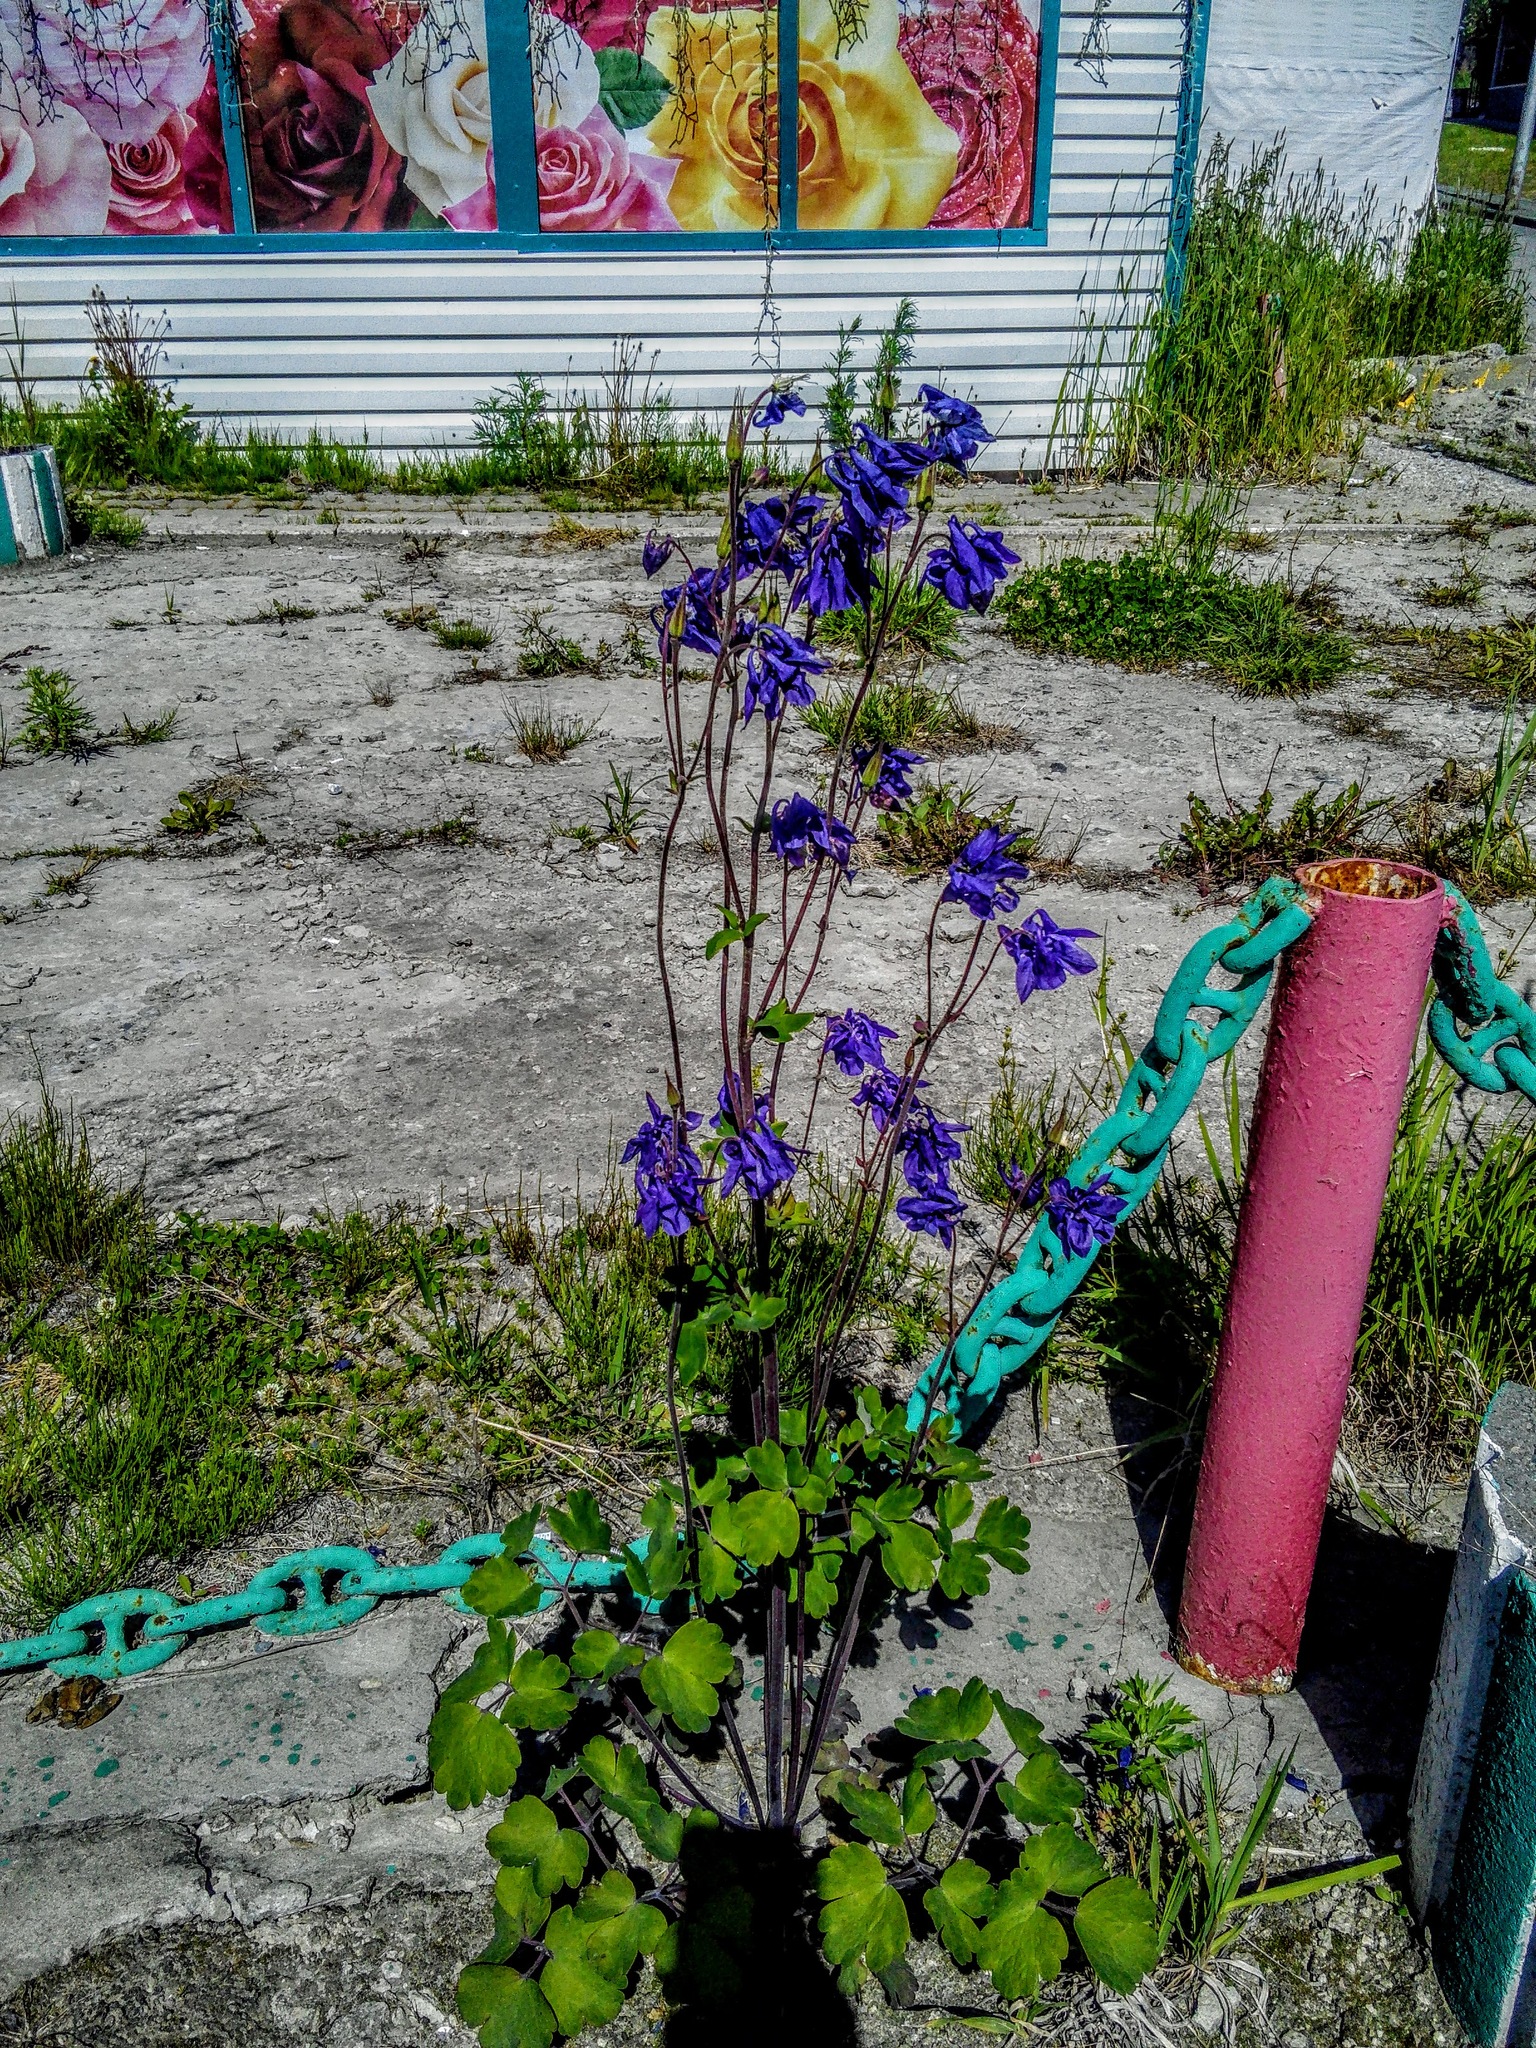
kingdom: Plantae
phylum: Tracheophyta
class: Magnoliopsida
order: Ranunculales
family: Ranunculaceae
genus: Aquilegia
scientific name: Aquilegia vulgaris
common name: Columbine
